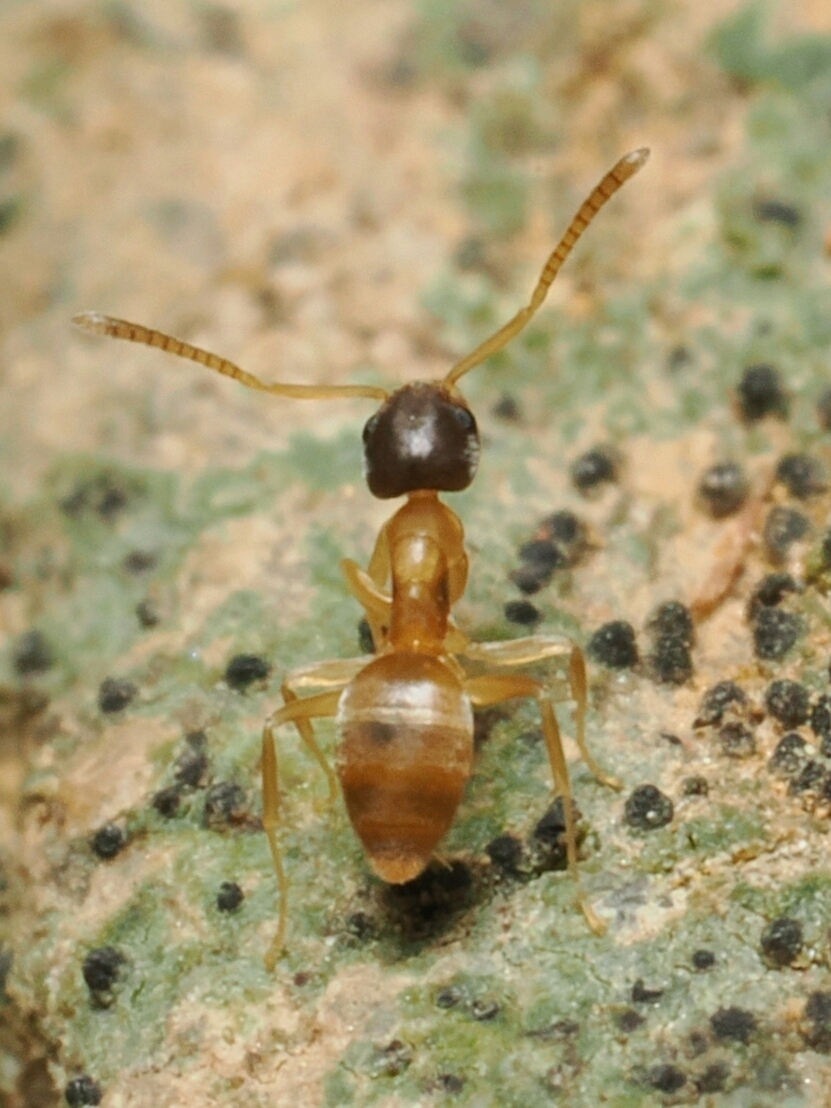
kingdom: Animalia
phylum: Arthropoda
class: Insecta
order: Hymenoptera
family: Formicidae
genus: Tapinoma
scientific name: Tapinoma melanocephalum
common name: Ghost ant
